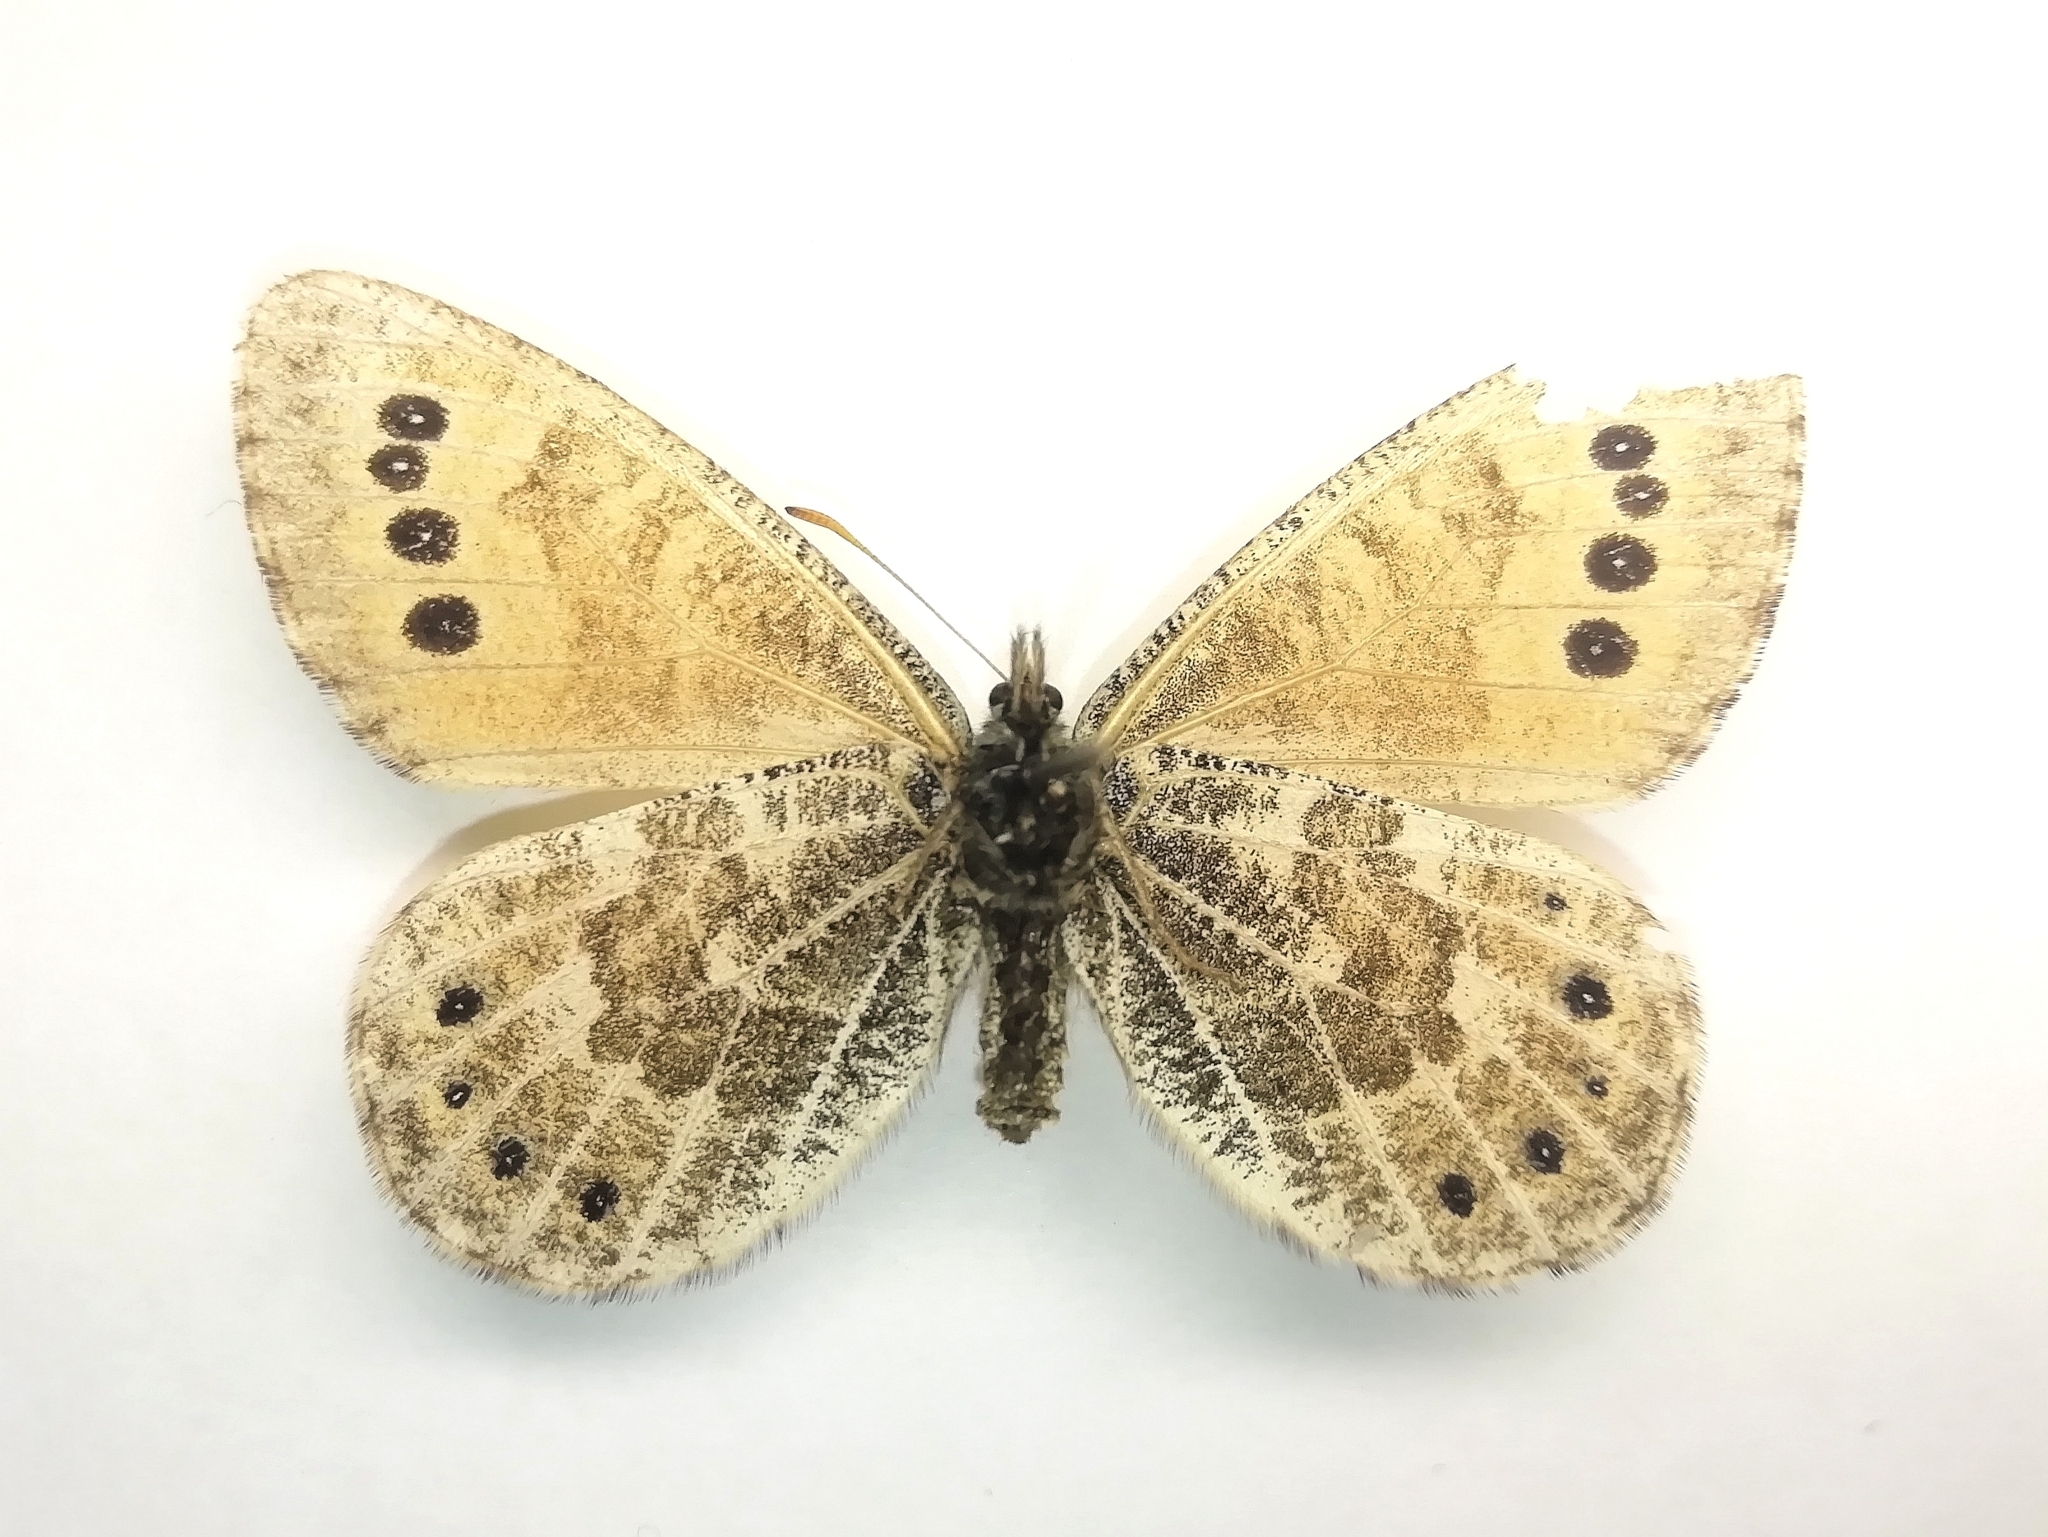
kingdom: Animalia
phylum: Arthropoda
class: Insecta
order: Lepidoptera
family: Nymphalidae
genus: Oeneis
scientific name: Oeneis tarpeia
